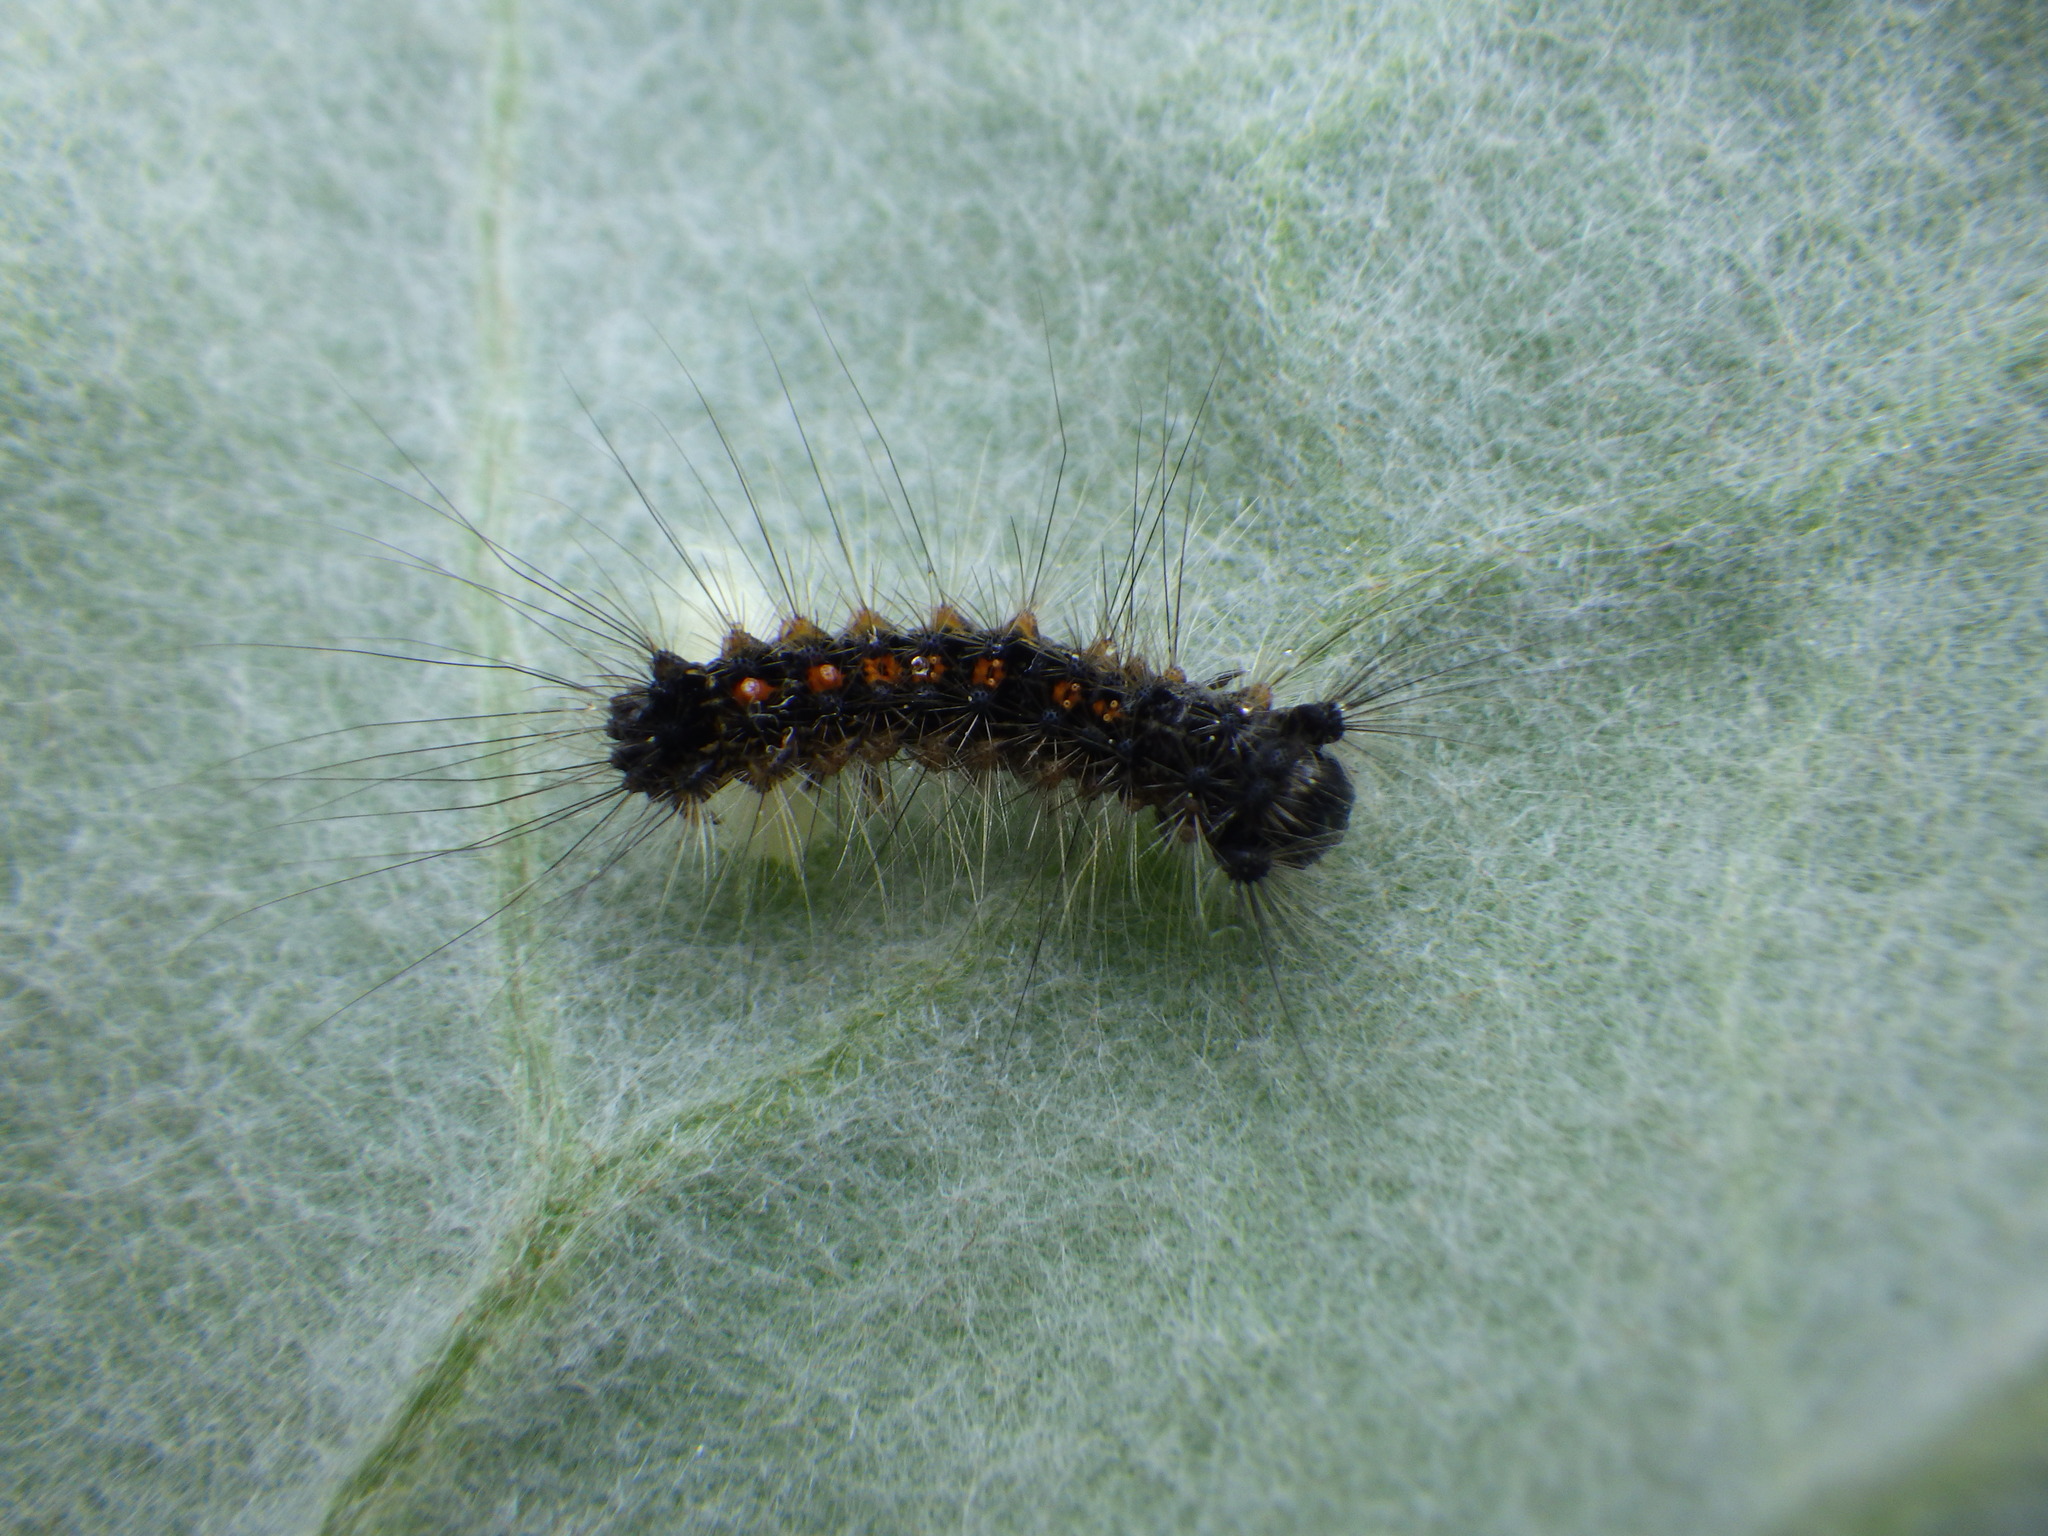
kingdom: Animalia
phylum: Arthropoda
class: Insecta
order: Lepidoptera
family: Erebidae
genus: Lymantria
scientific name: Lymantria dispar
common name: Gypsy moth
